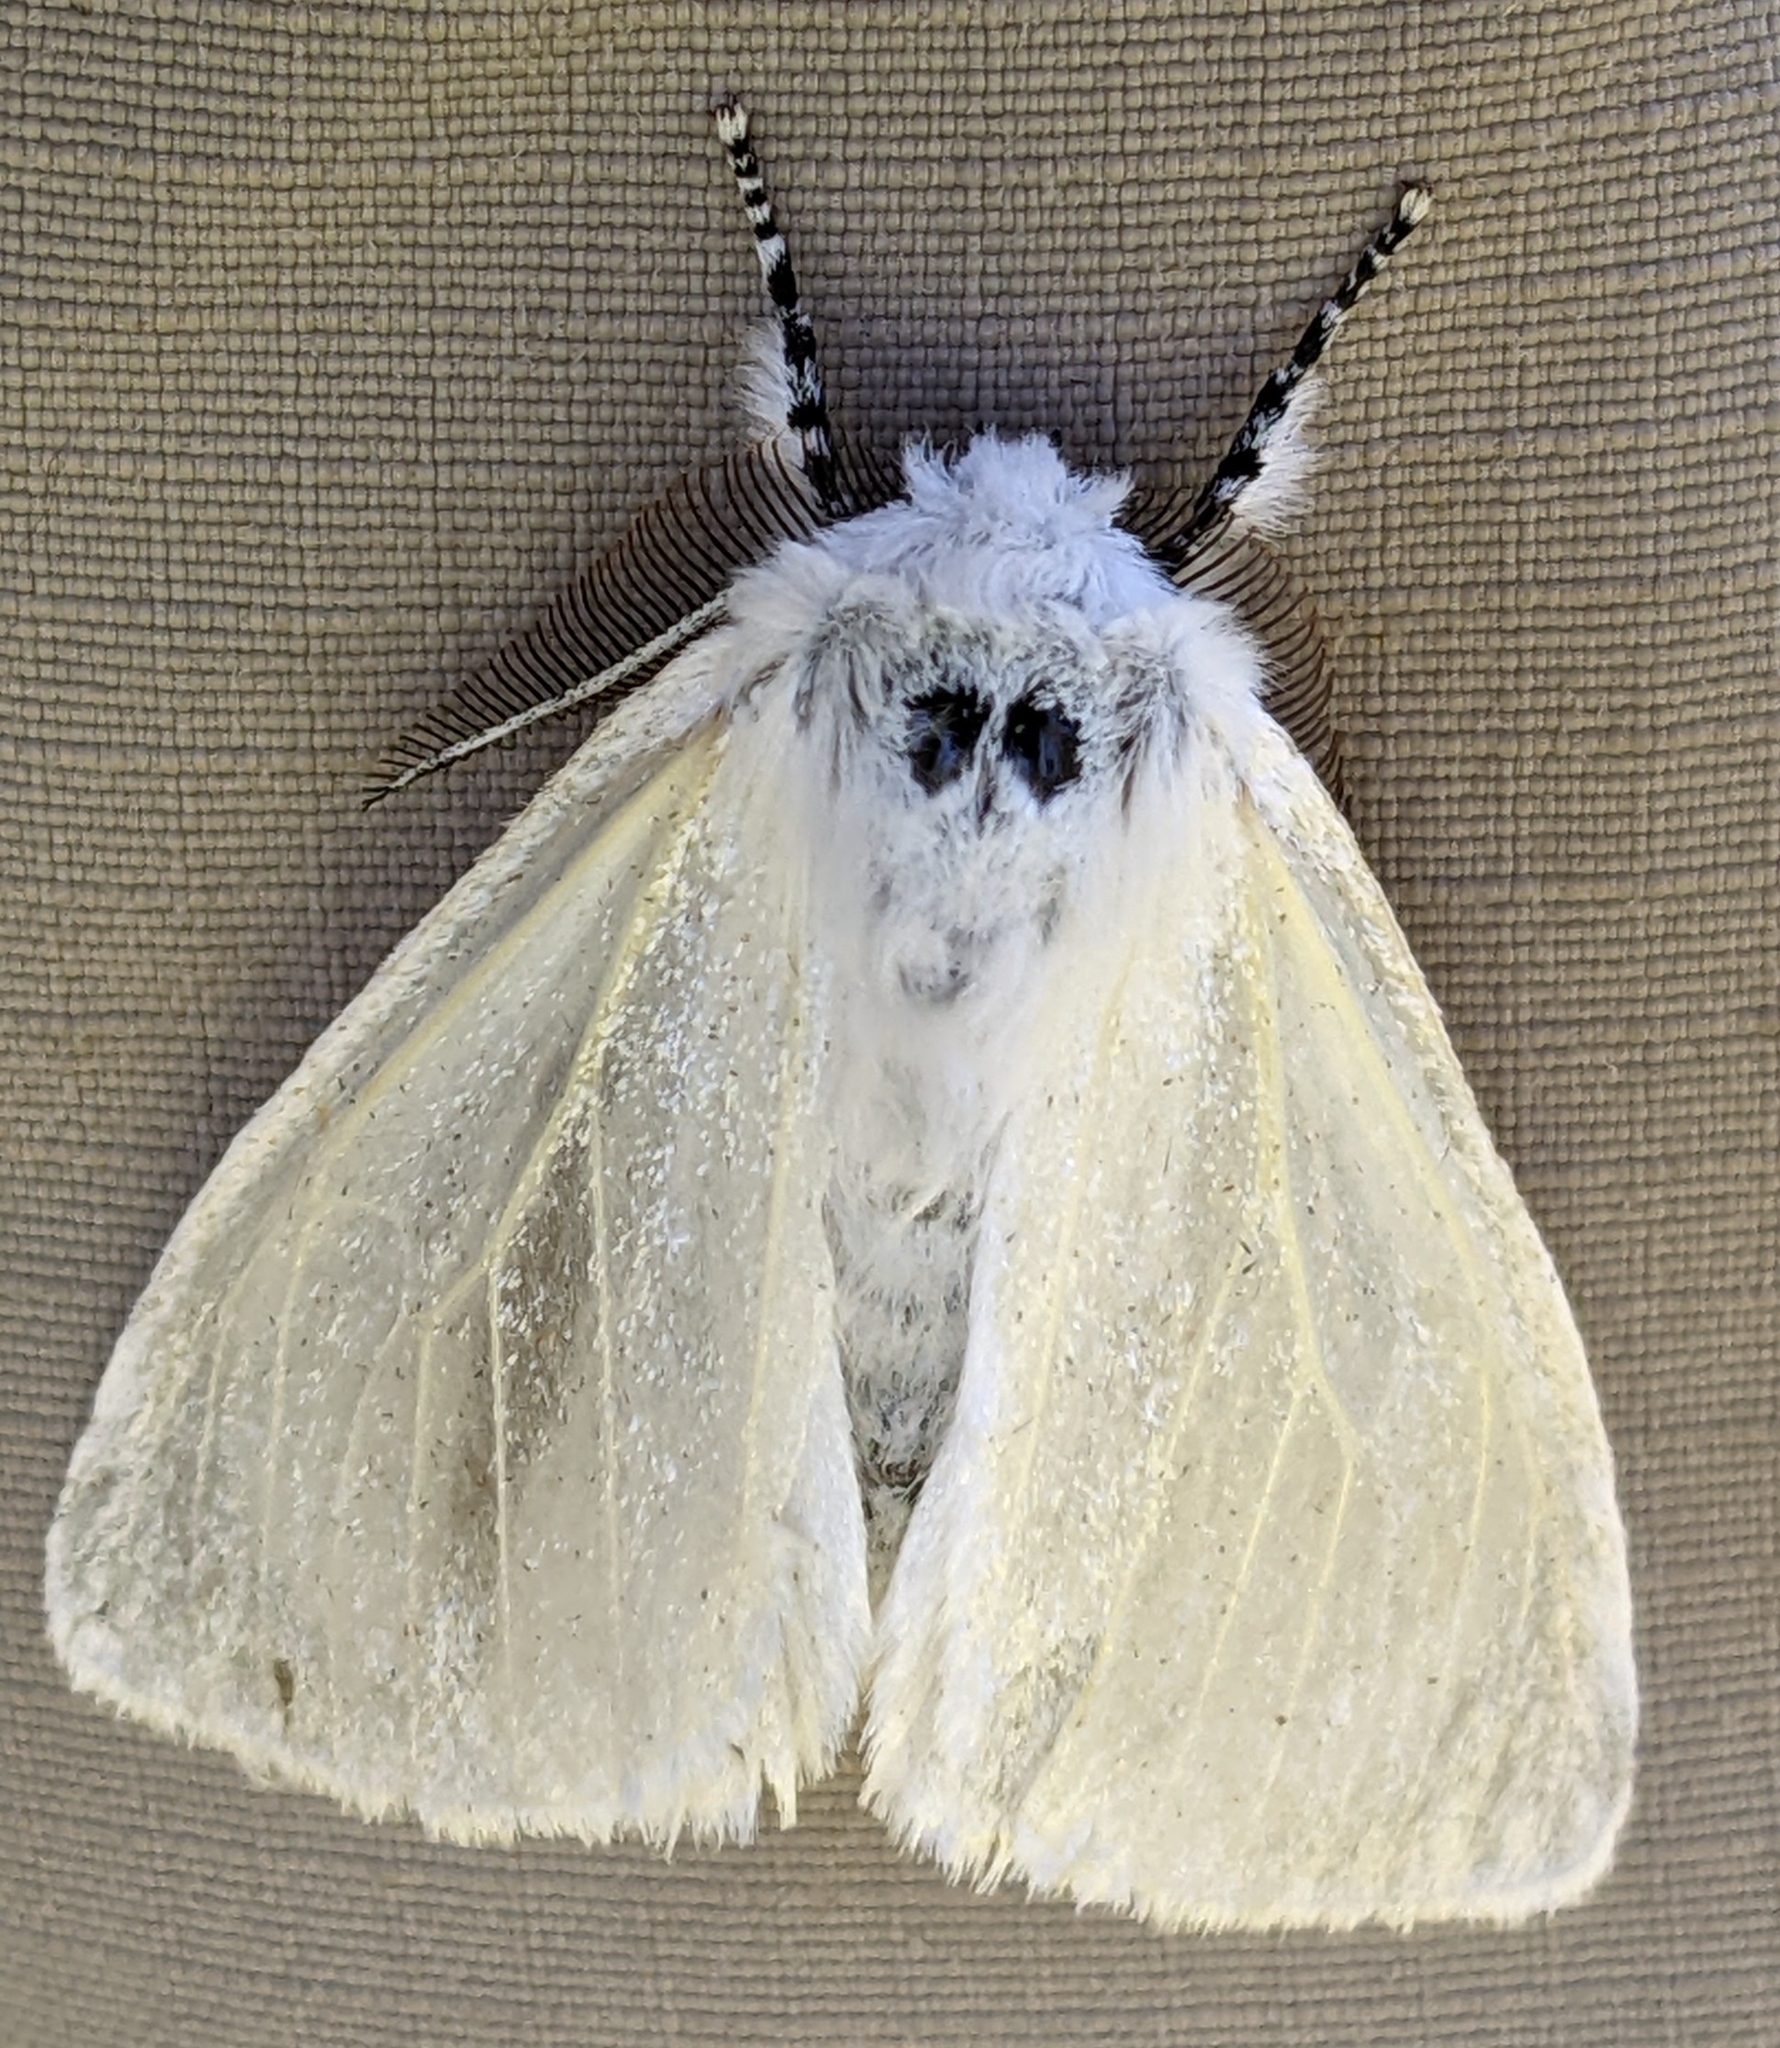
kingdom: Animalia
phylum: Arthropoda
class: Insecta
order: Lepidoptera
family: Erebidae
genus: Leucoma
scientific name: Leucoma salicis
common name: White satin moth
